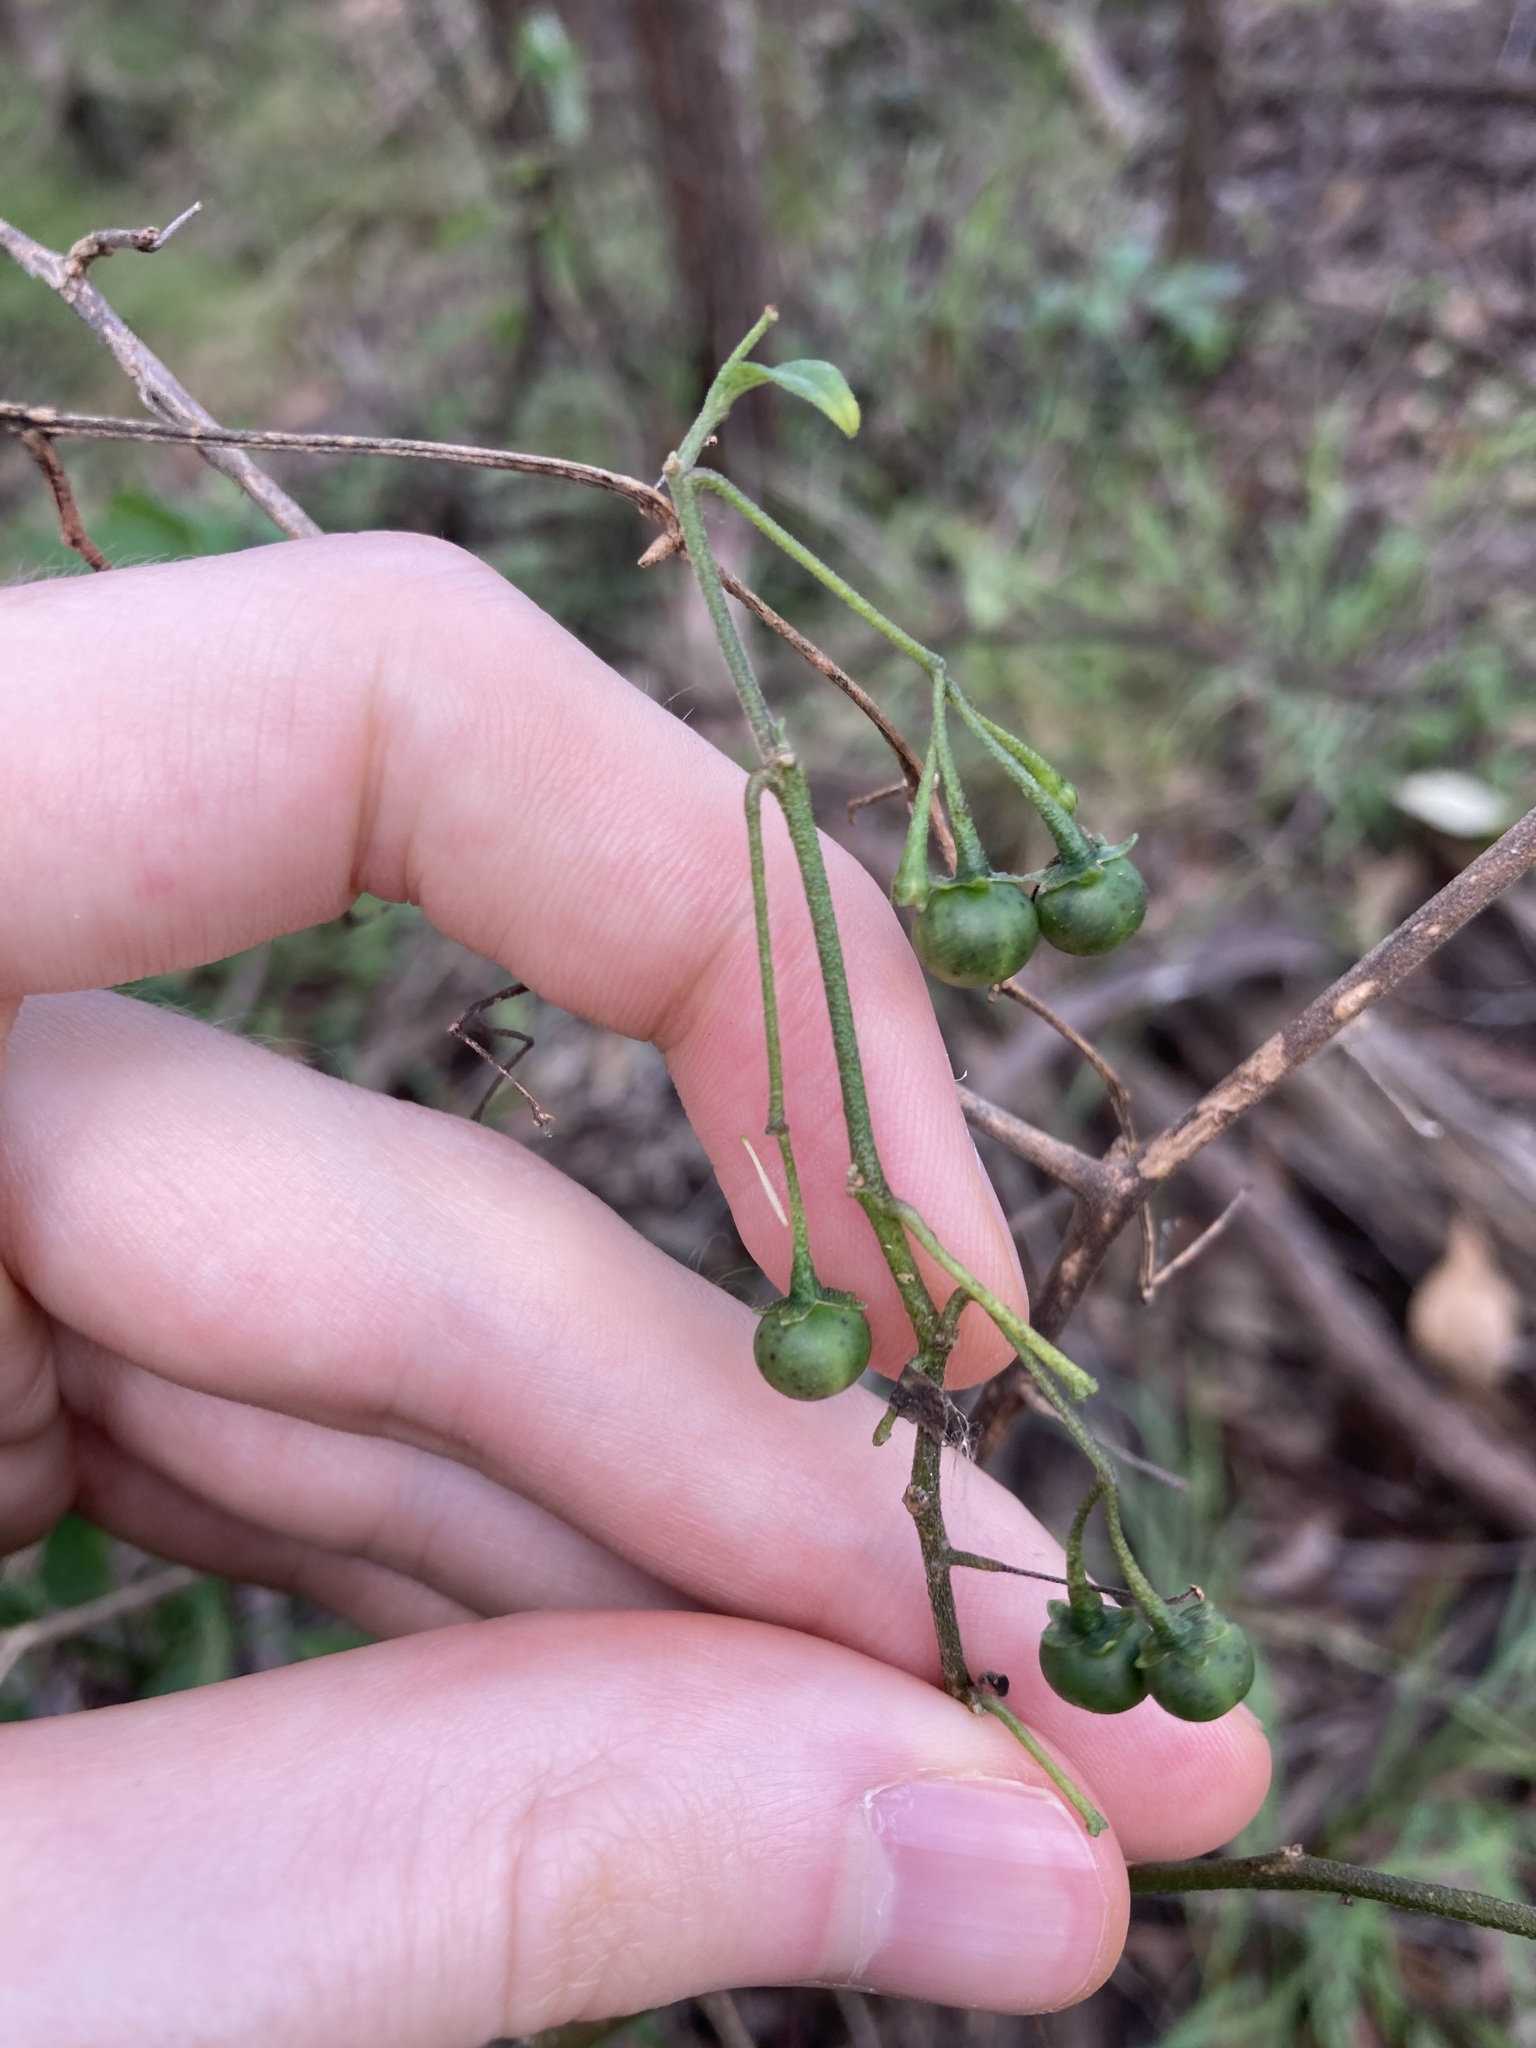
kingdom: Plantae
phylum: Tracheophyta
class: Magnoliopsida
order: Solanales
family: Solanaceae
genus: Solanum
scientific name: Solanum chenopodioides
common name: Tall nightshade
